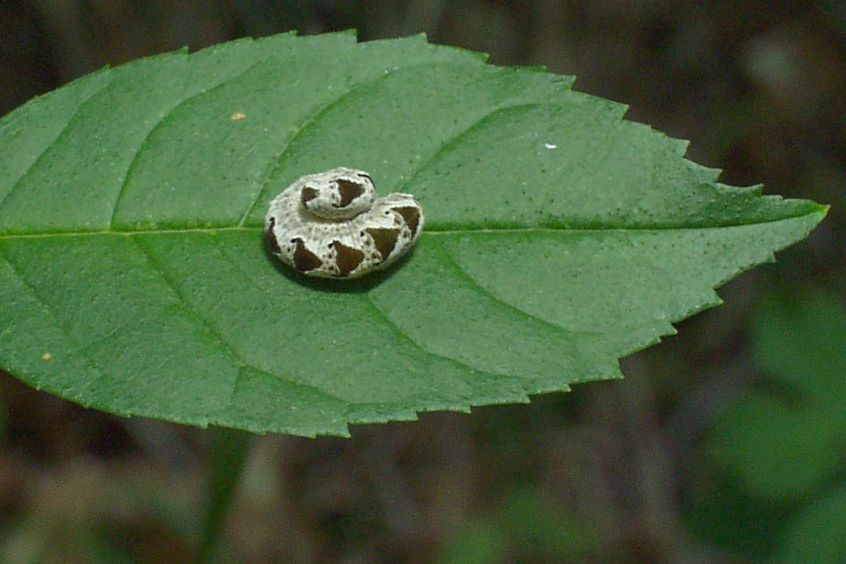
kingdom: Animalia
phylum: Arthropoda
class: Insecta
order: Hymenoptera
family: Tenthredinidae
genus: Tenthredo
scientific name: Tenthredo vespa
